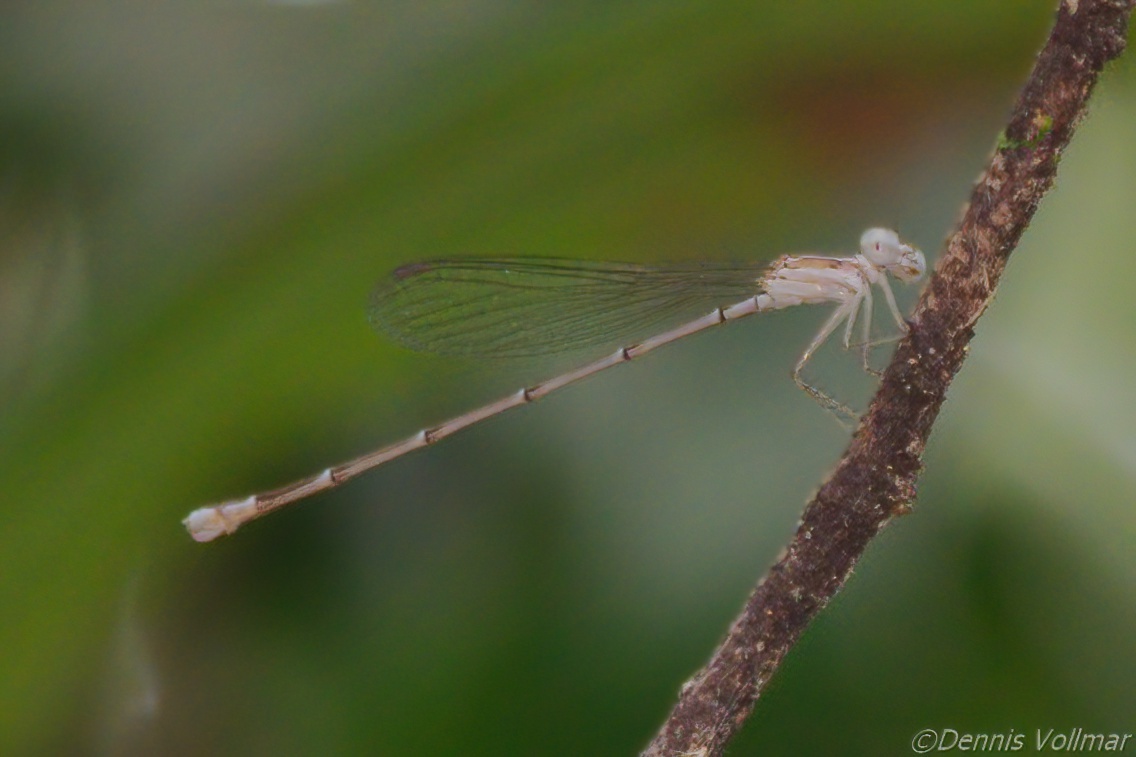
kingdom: Animalia
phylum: Arthropoda
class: Insecta
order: Odonata
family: Coenagrionidae
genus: Nehalennia
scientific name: Nehalennia pallidula
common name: Everglades sprite
